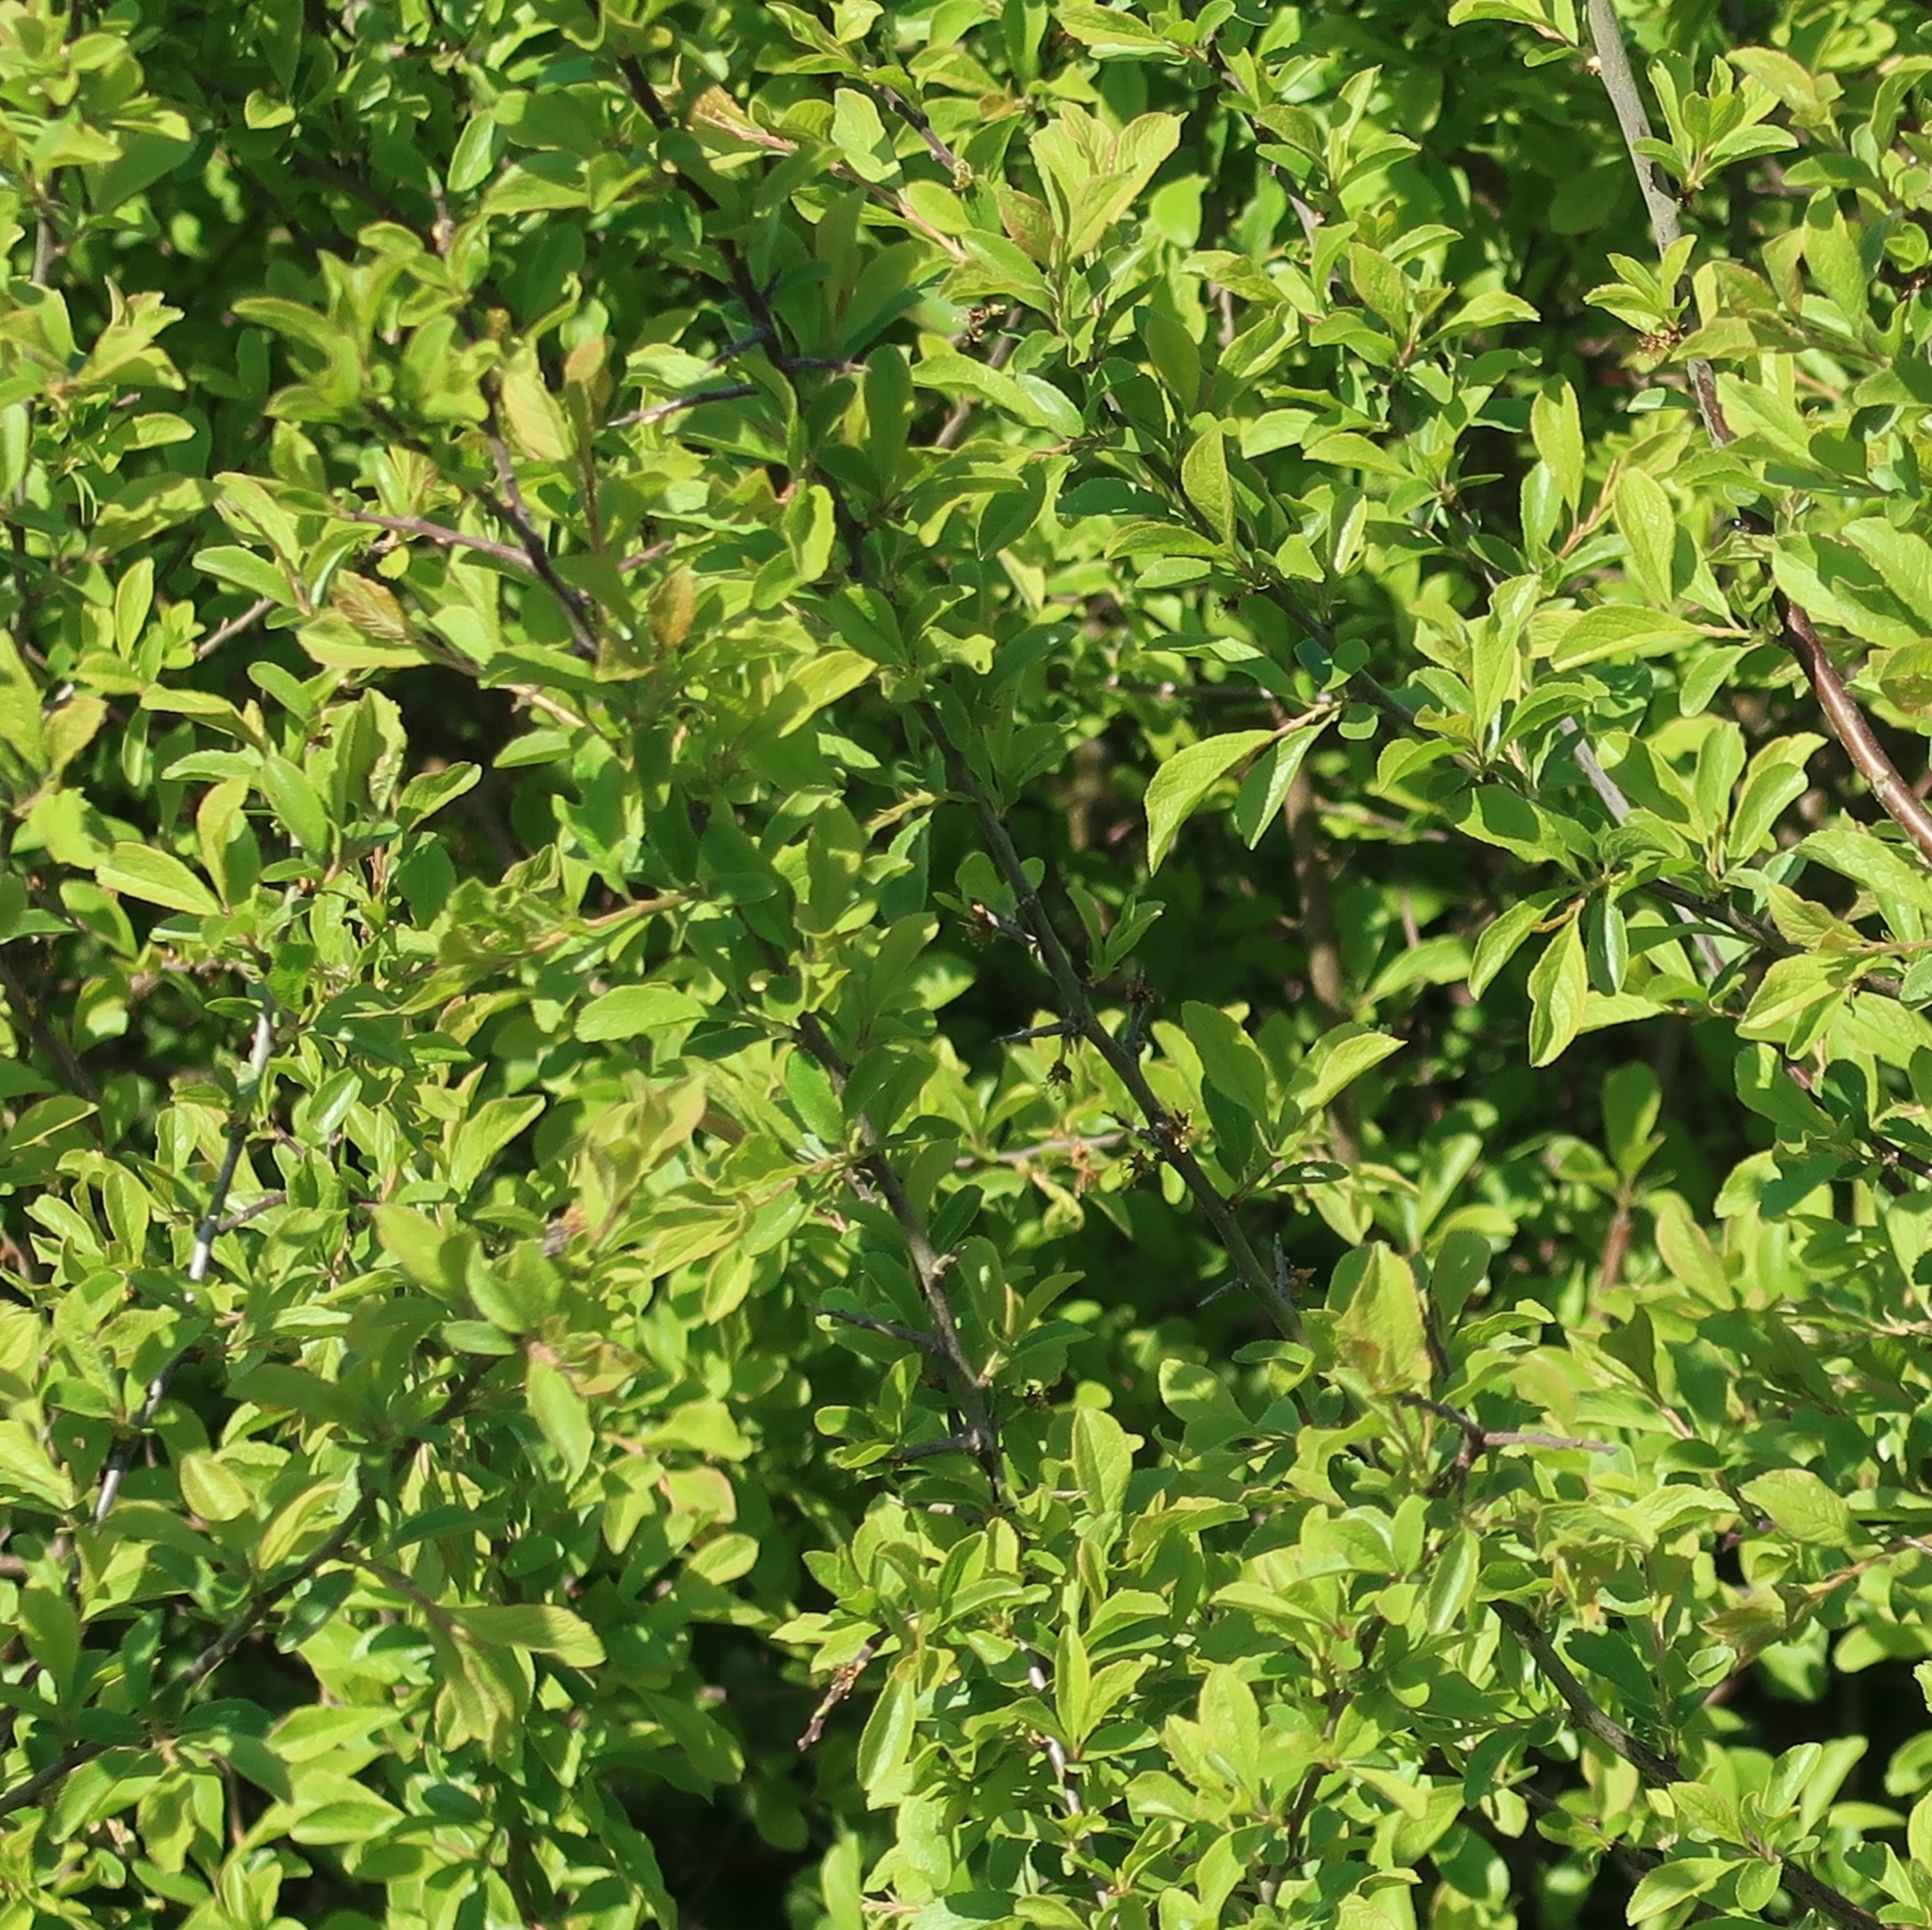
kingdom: Plantae
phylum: Tracheophyta
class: Magnoliopsida
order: Rosales
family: Rosaceae
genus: Prunus
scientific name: Prunus spinosa
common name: Blackthorn
